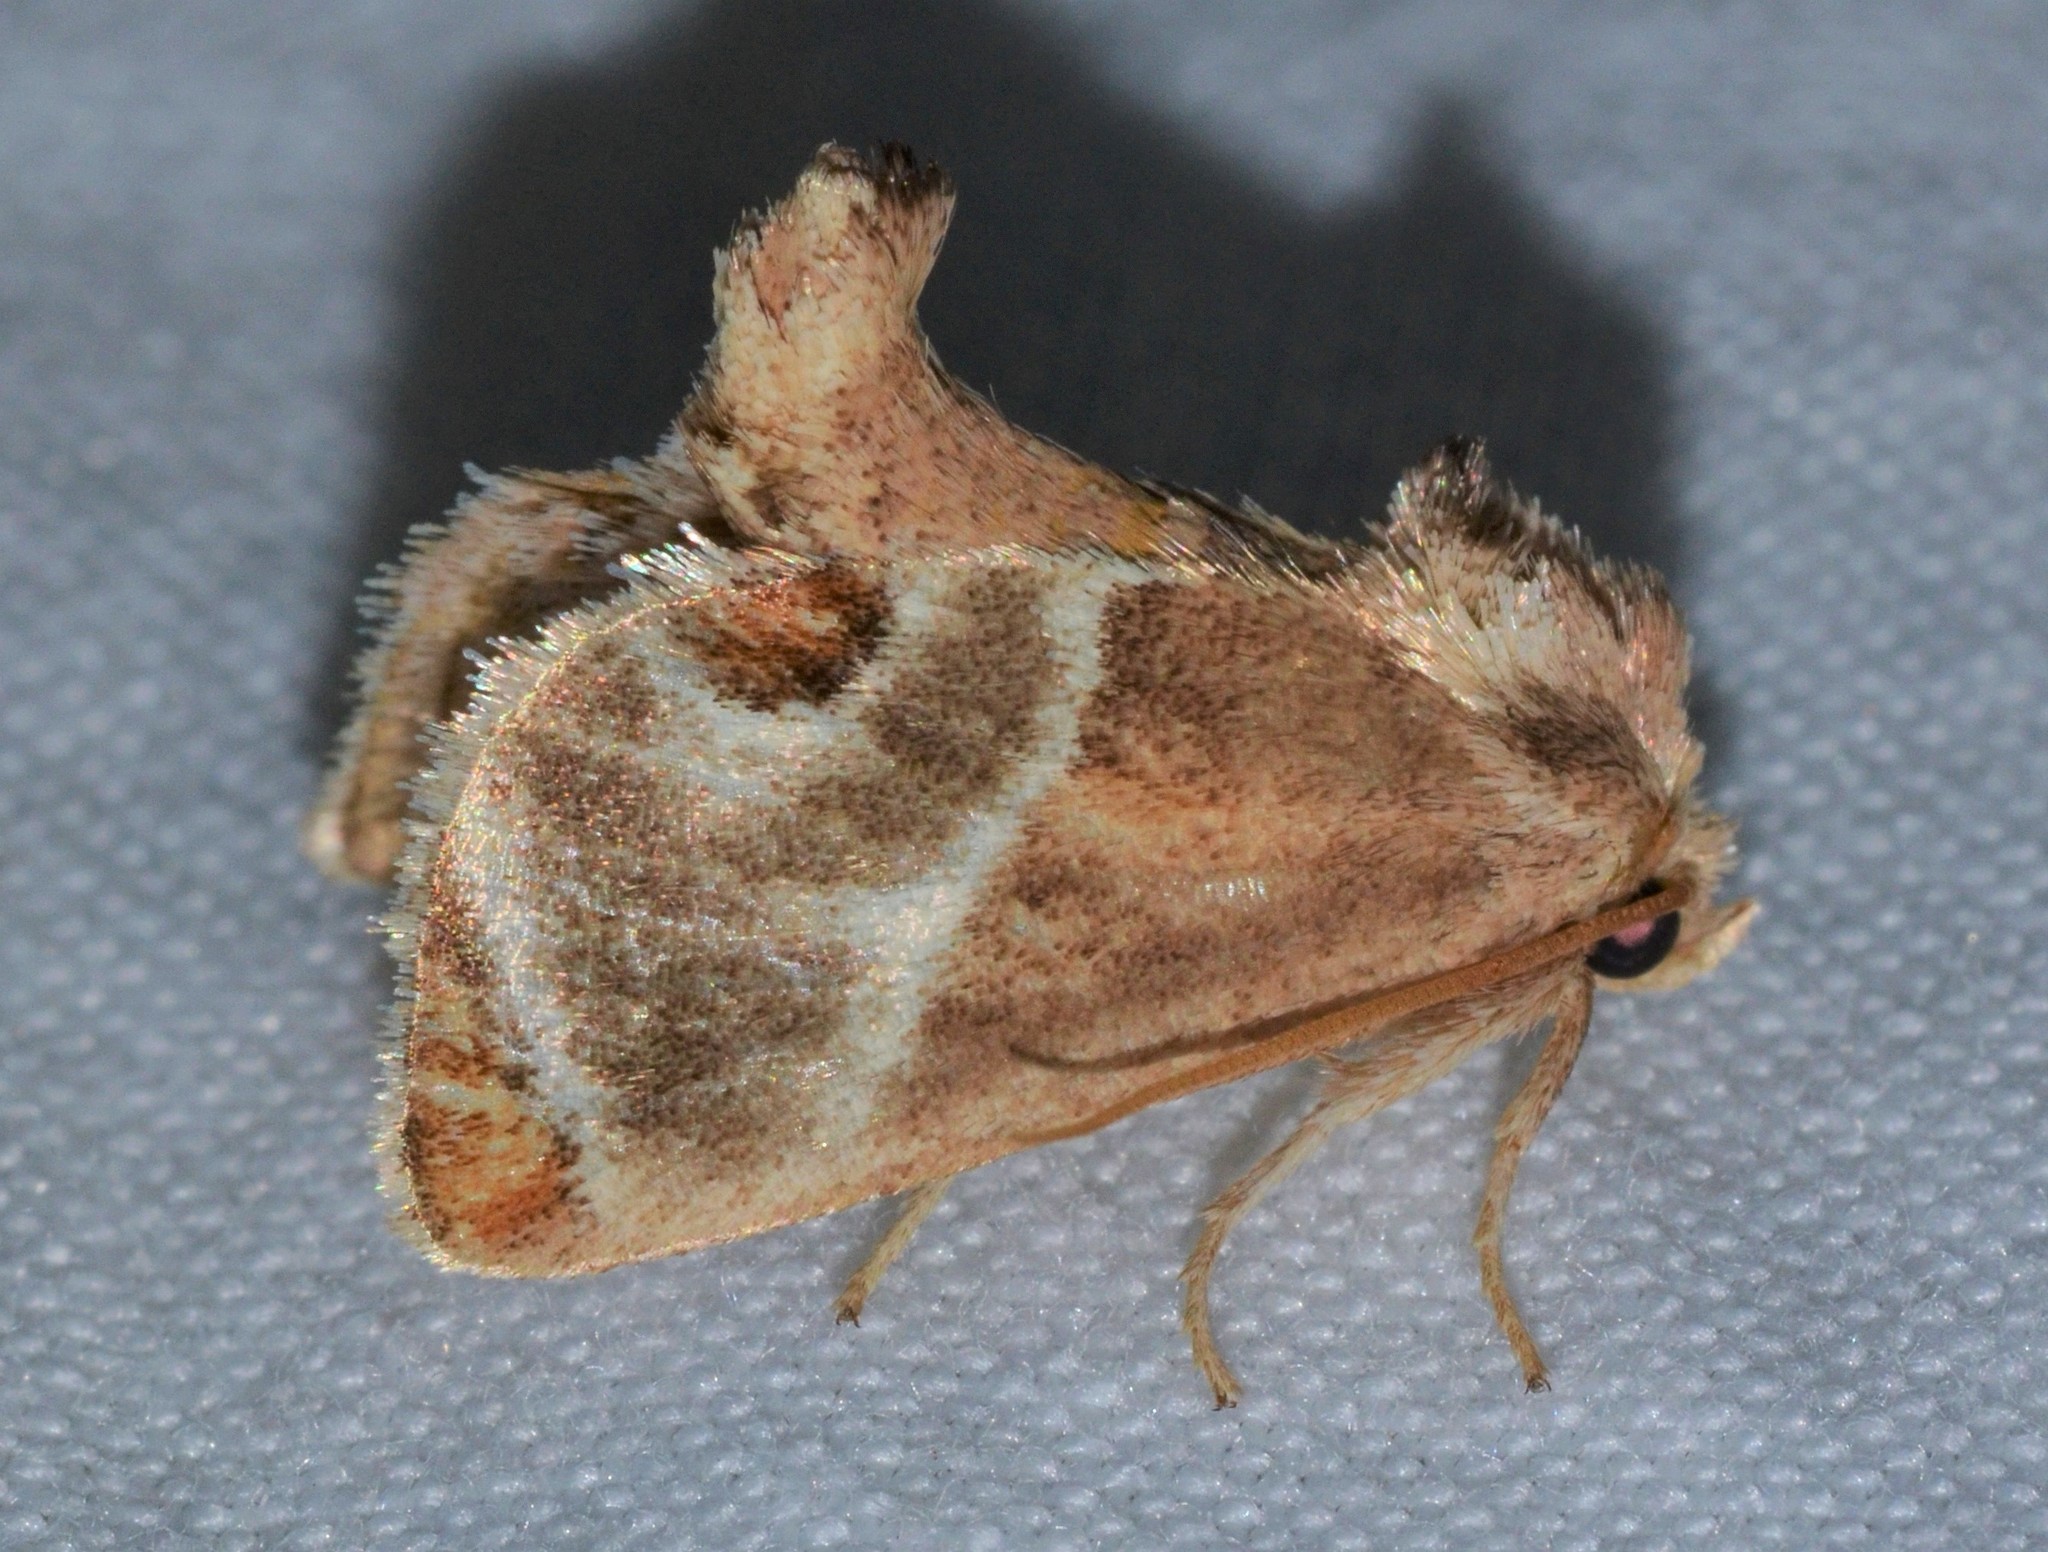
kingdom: Animalia
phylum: Arthropoda
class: Insecta
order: Lepidoptera
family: Limacodidae
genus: Apoda
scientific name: Apoda biguttata
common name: Shagreened slug moth
